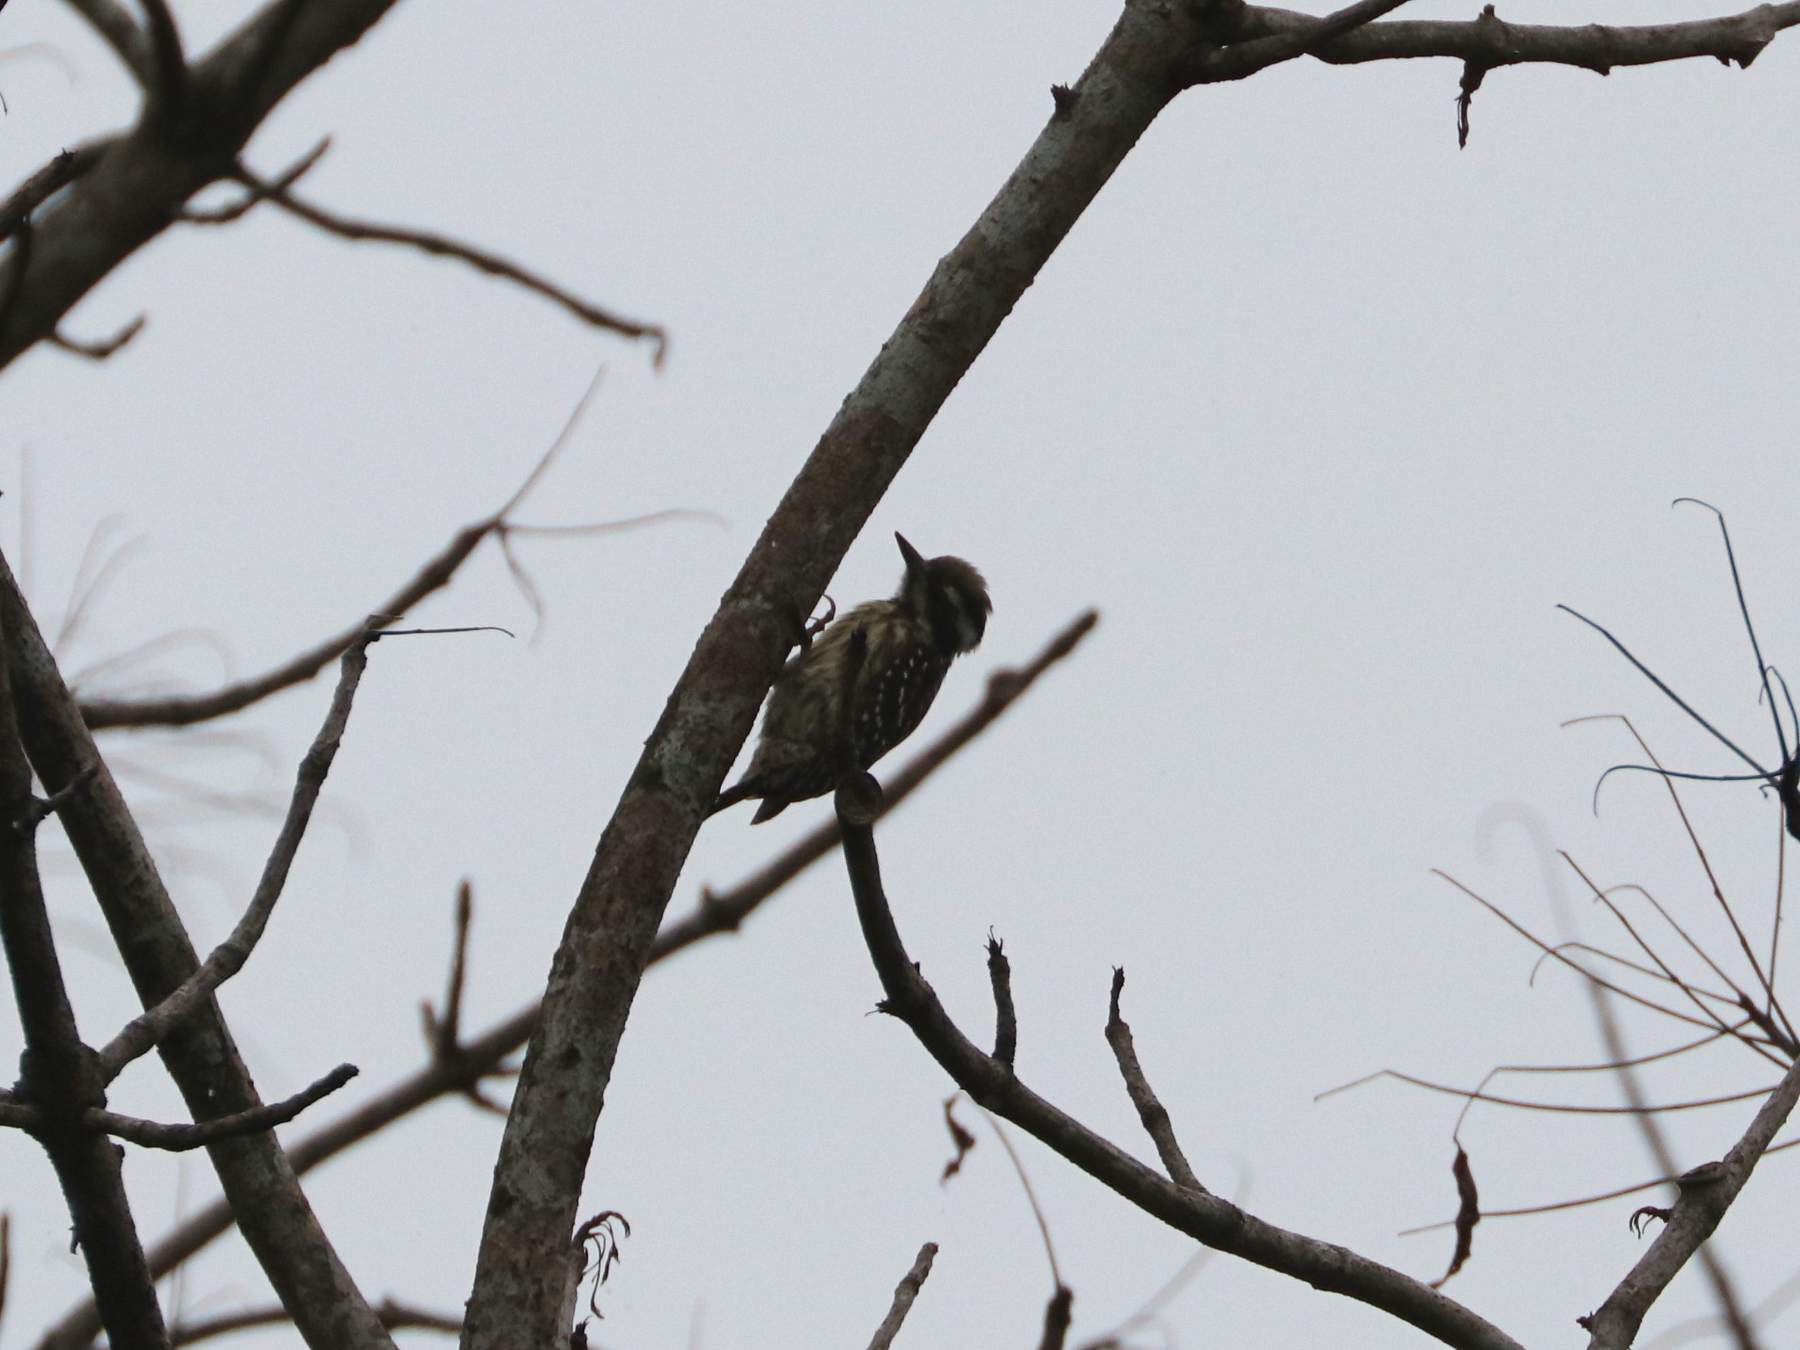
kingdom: Animalia
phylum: Chordata
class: Aves
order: Piciformes
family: Picidae
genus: Yungipicus
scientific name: Yungipicus maculatus
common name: Philippine pygmy woodpecker
